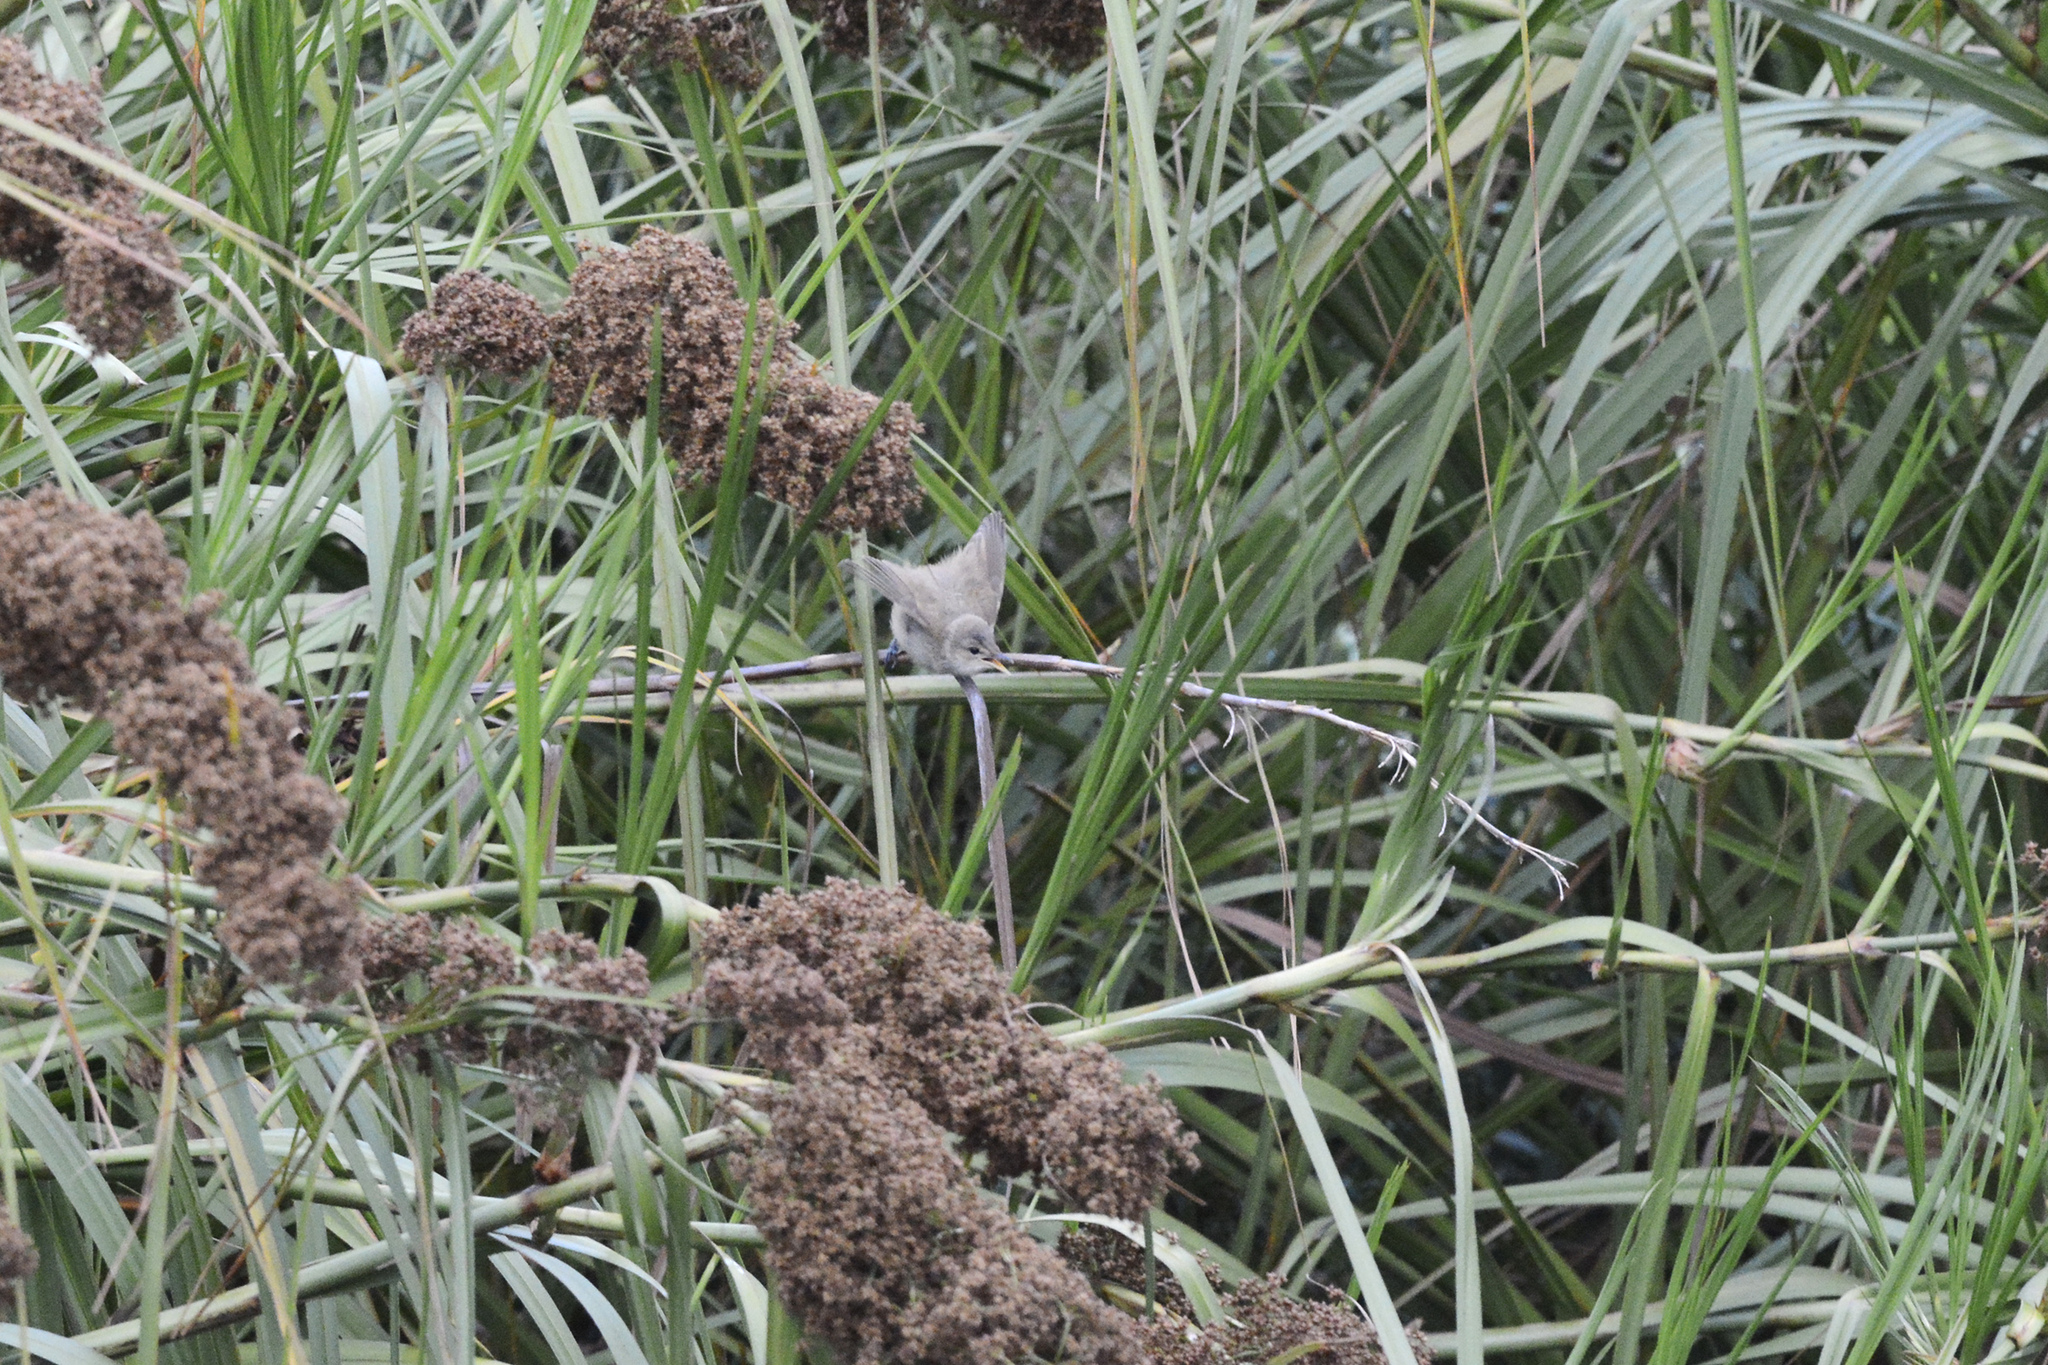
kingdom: Animalia
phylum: Chordata
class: Aves
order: Passeriformes
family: Acrocephalidae
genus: Acrocephalus
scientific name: Acrocephalus australis
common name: Australian reed warbler
